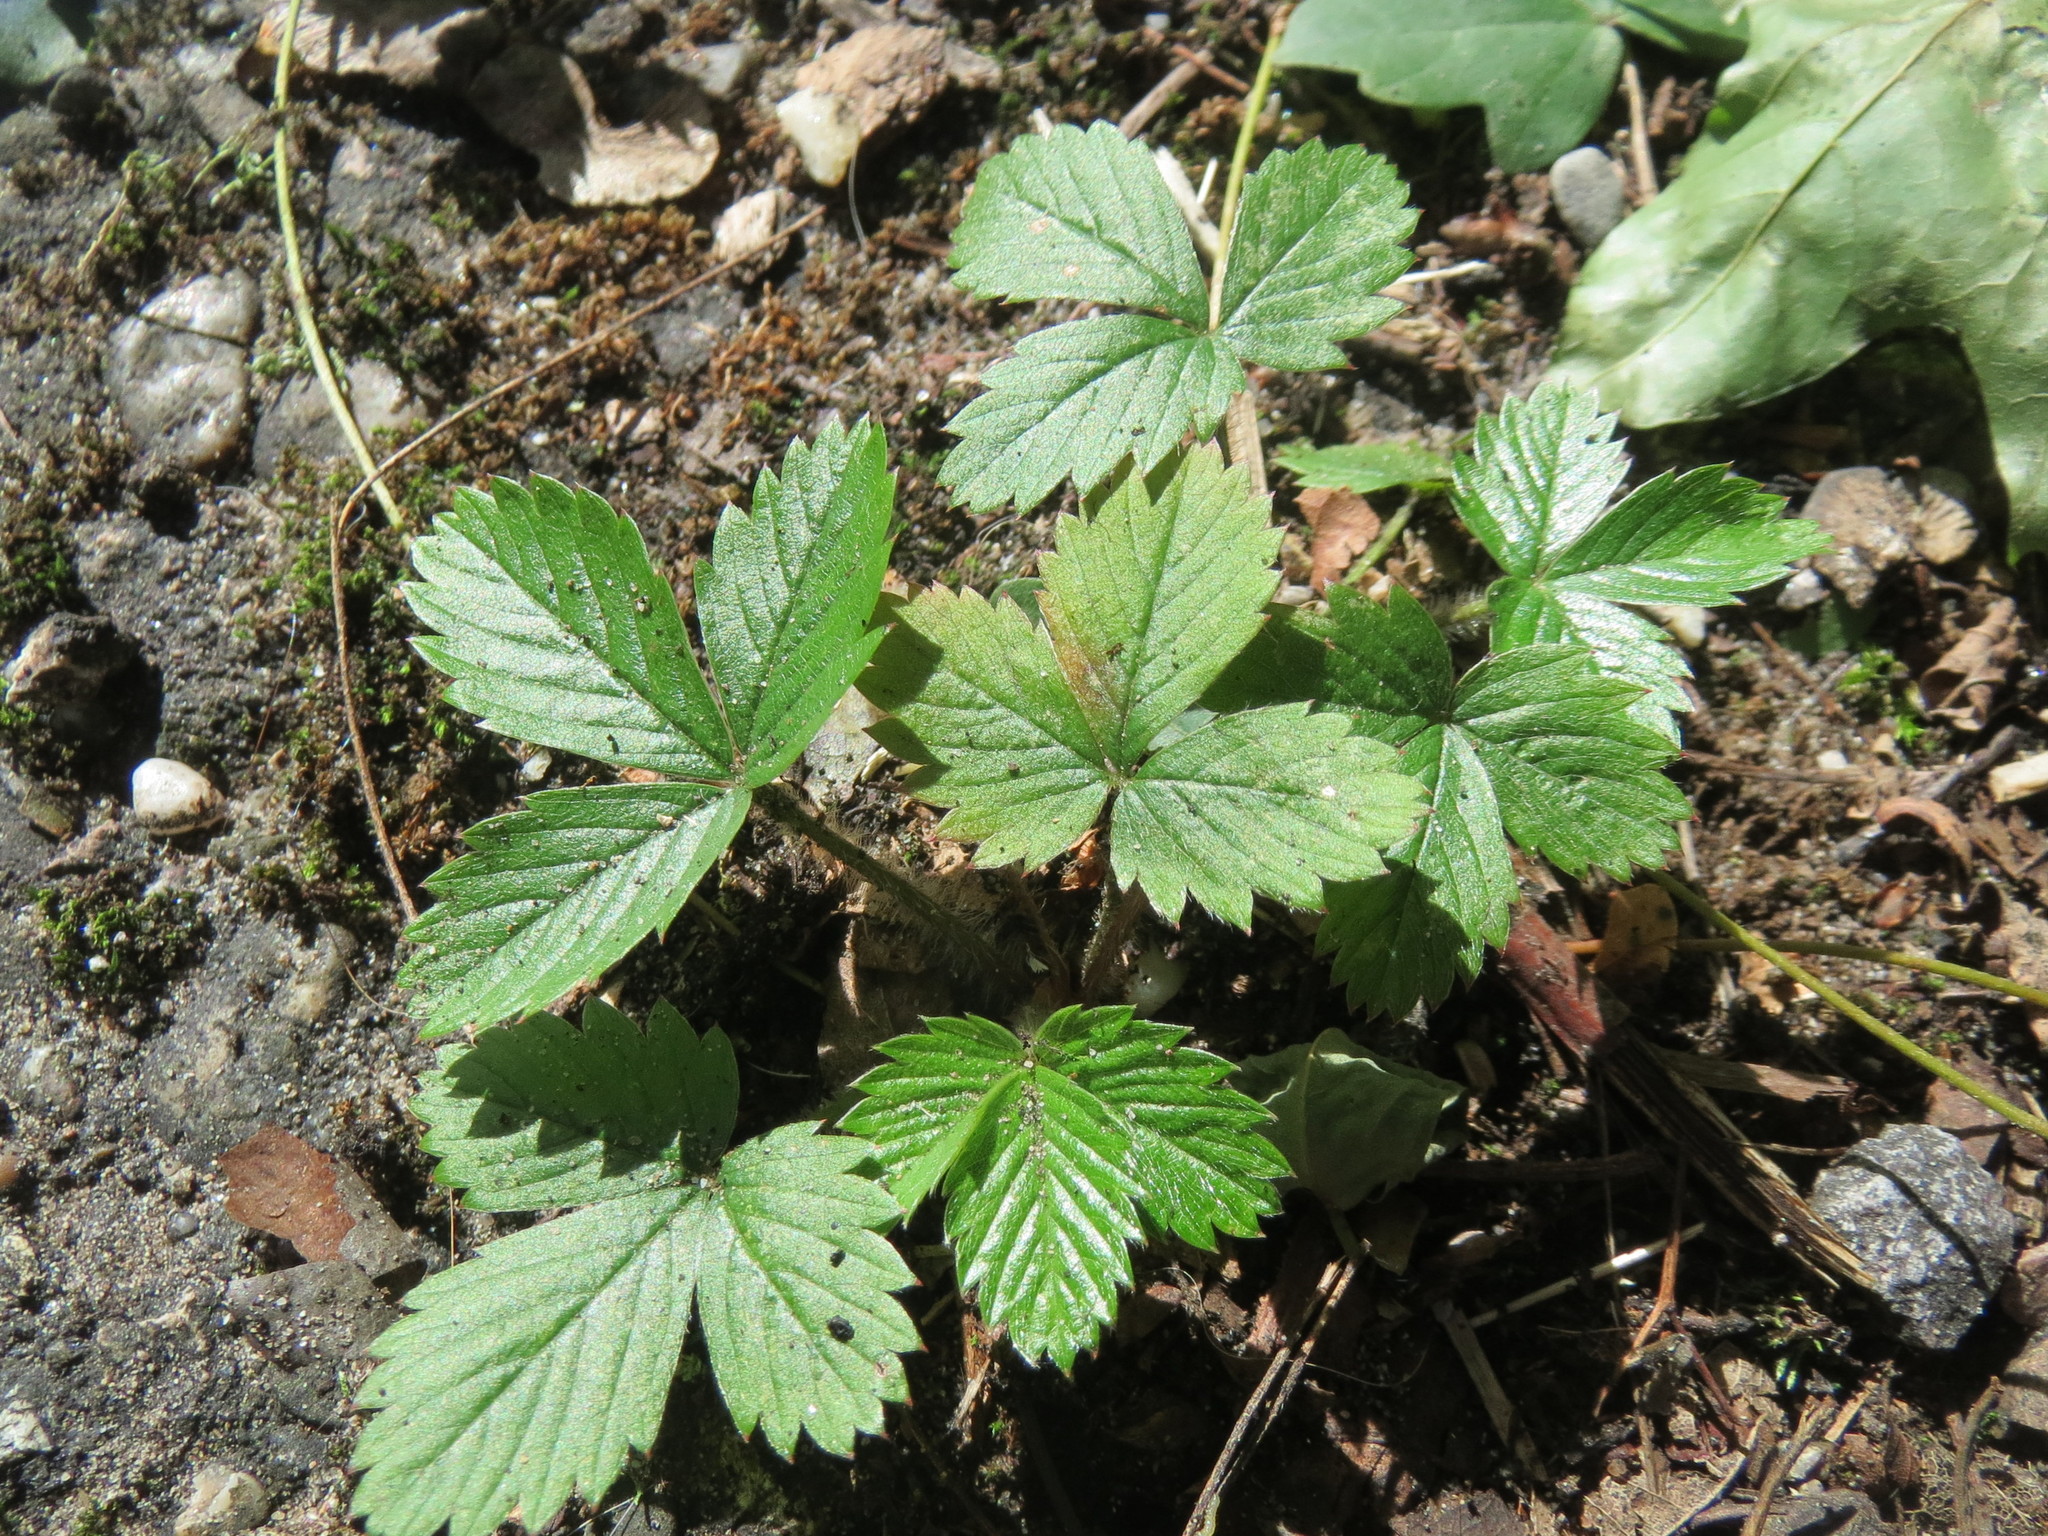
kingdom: Plantae
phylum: Tracheophyta
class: Magnoliopsida
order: Rosales
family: Rosaceae
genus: Fragaria
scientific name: Fragaria vesca
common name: Wild strawberry
